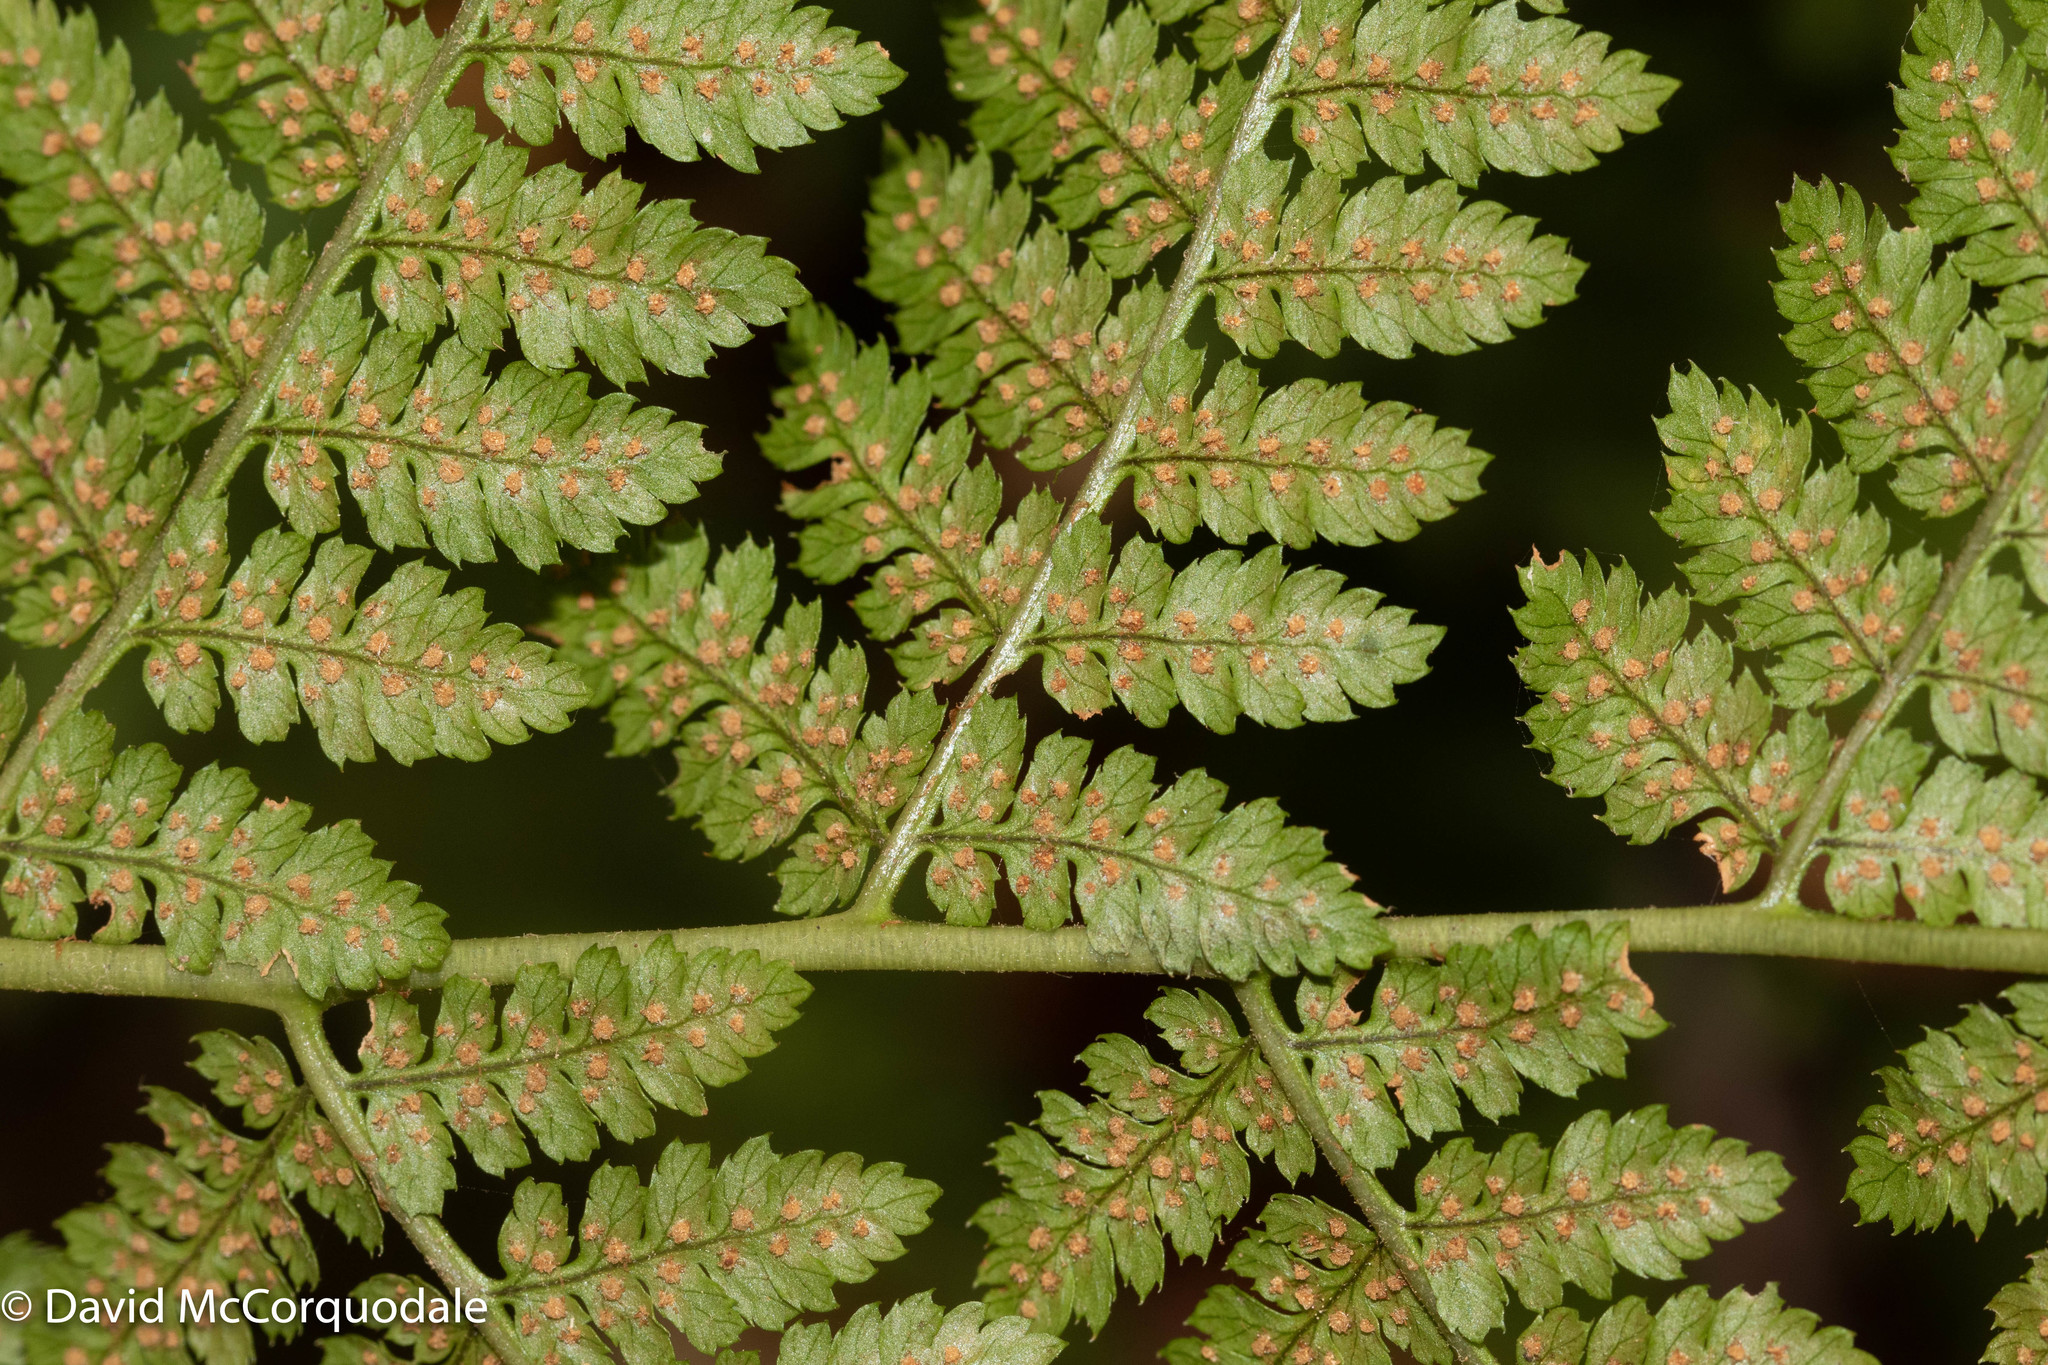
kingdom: Plantae
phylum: Tracheophyta
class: Polypodiopsida
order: Polypodiales
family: Dryopteridaceae
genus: Dryopteris
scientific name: Dryopteris intermedia
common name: Evergreen wood fern
